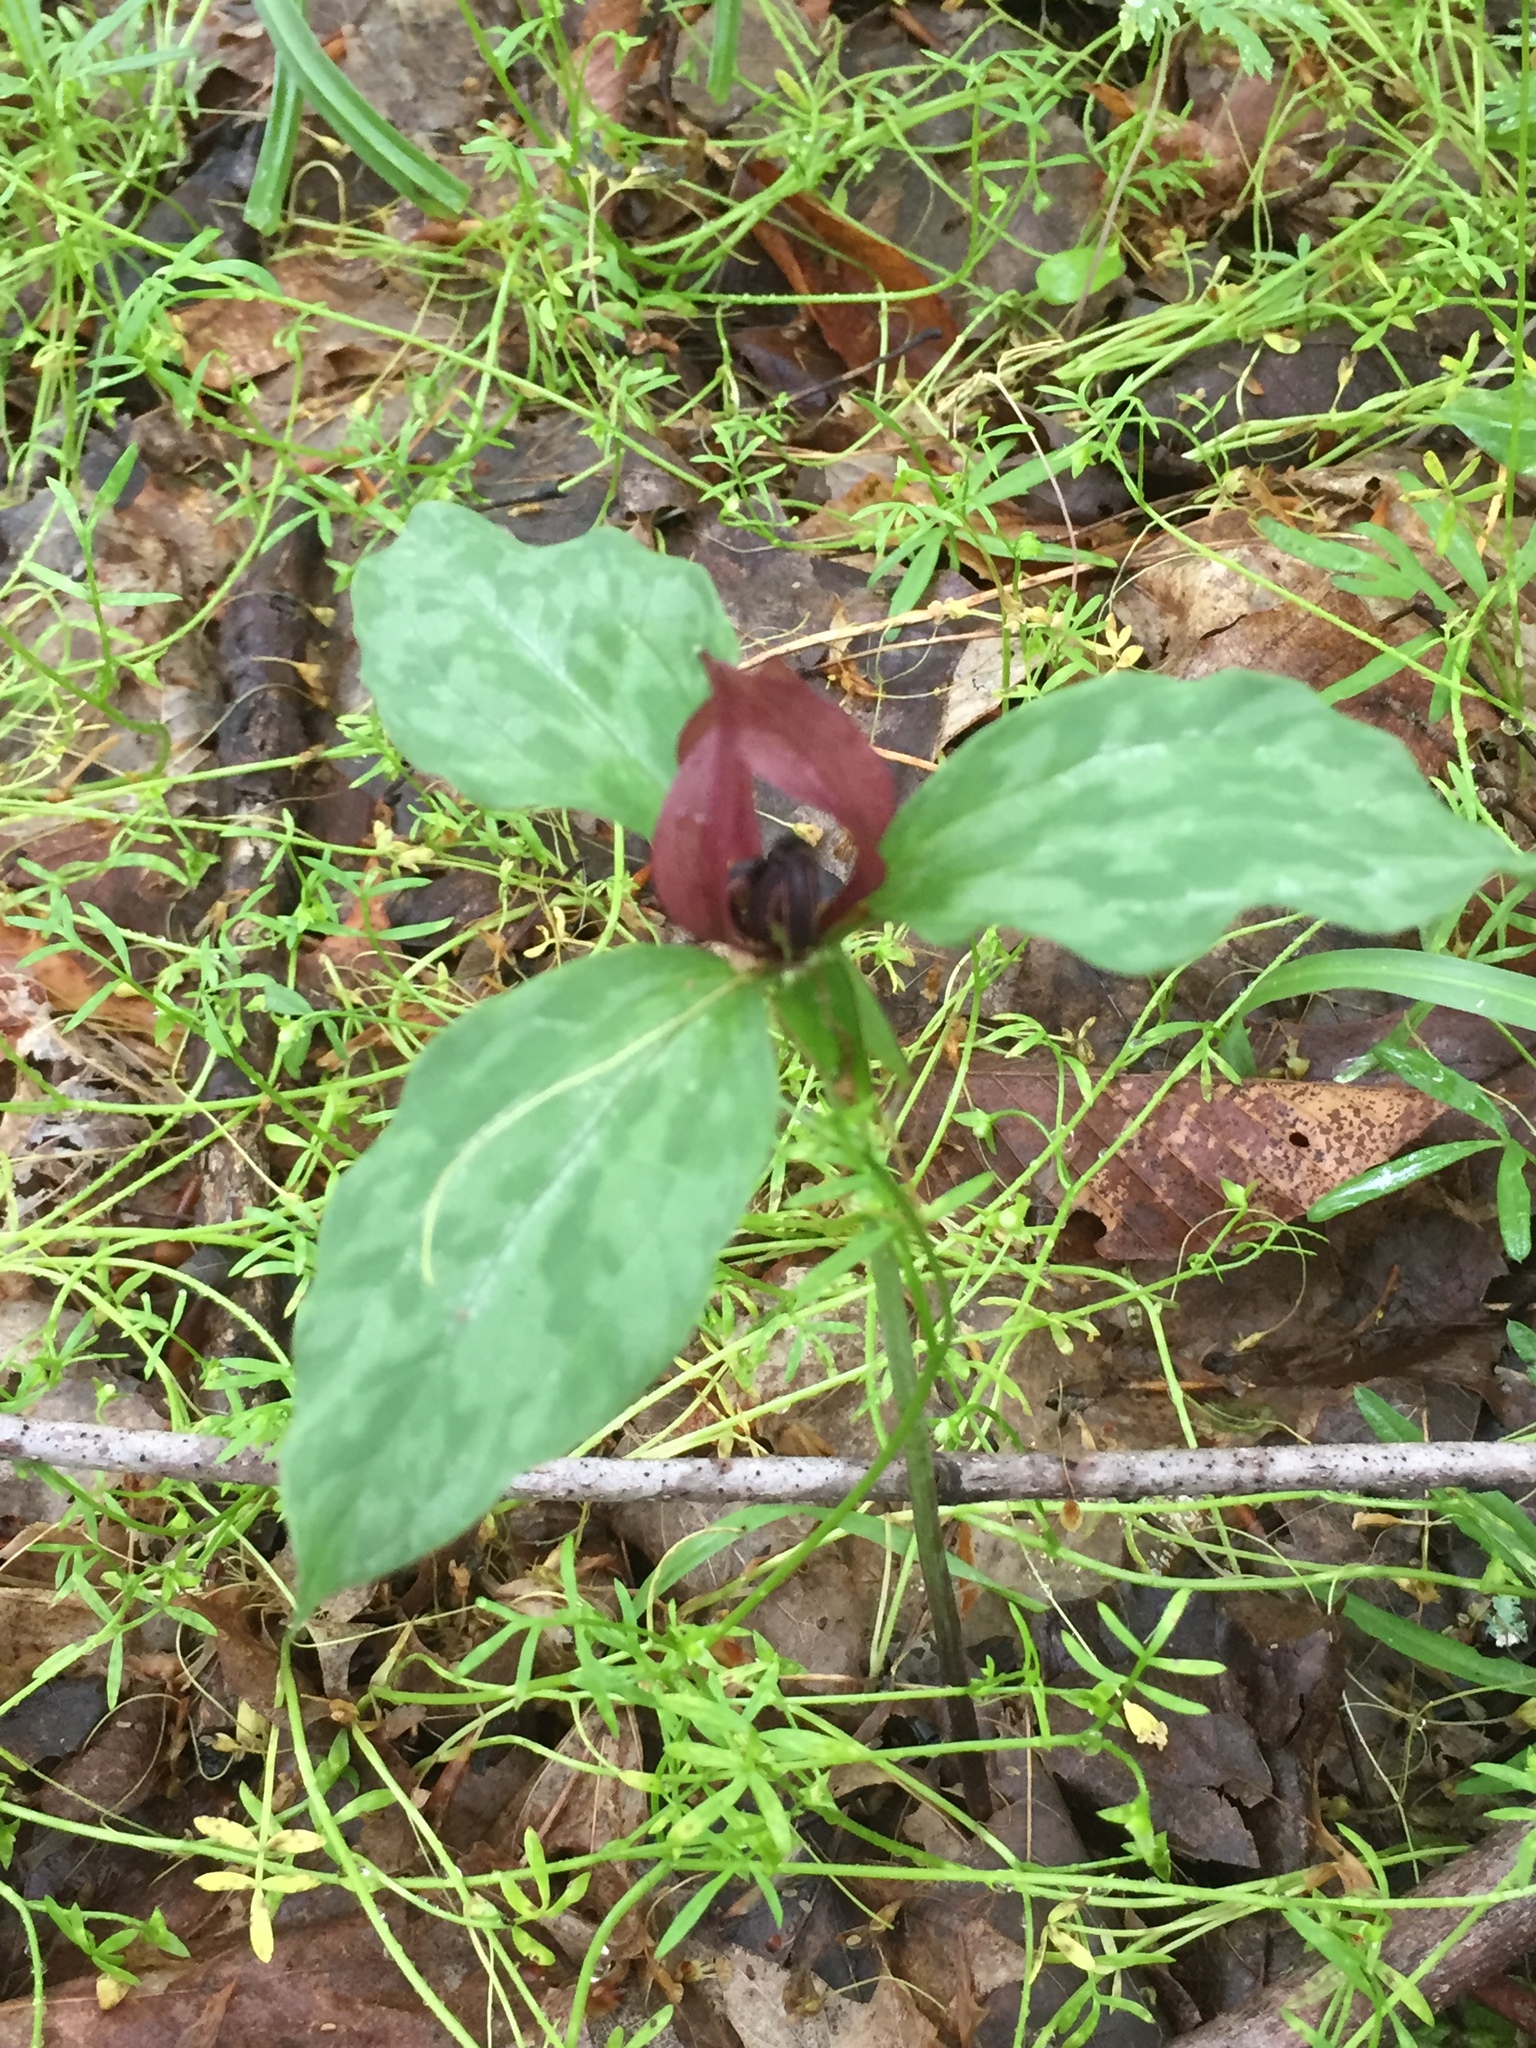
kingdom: Plantae
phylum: Tracheophyta
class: Liliopsida
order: Liliales
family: Melanthiaceae
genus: Trillium
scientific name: Trillium recurvatum
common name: Bloody butcher
